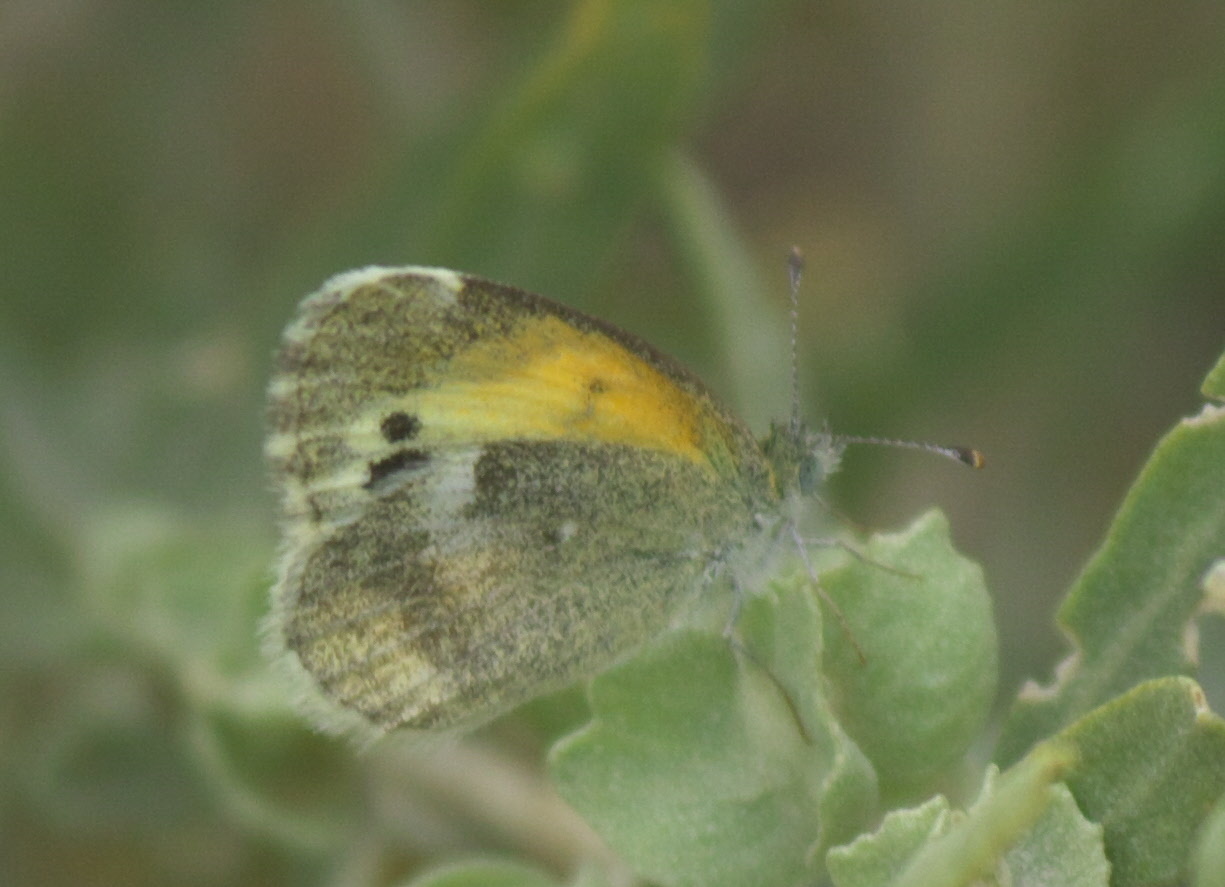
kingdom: Animalia
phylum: Arthropoda
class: Insecta
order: Lepidoptera
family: Pieridae
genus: Nathalis
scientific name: Nathalis iole
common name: Dainty sulphur
